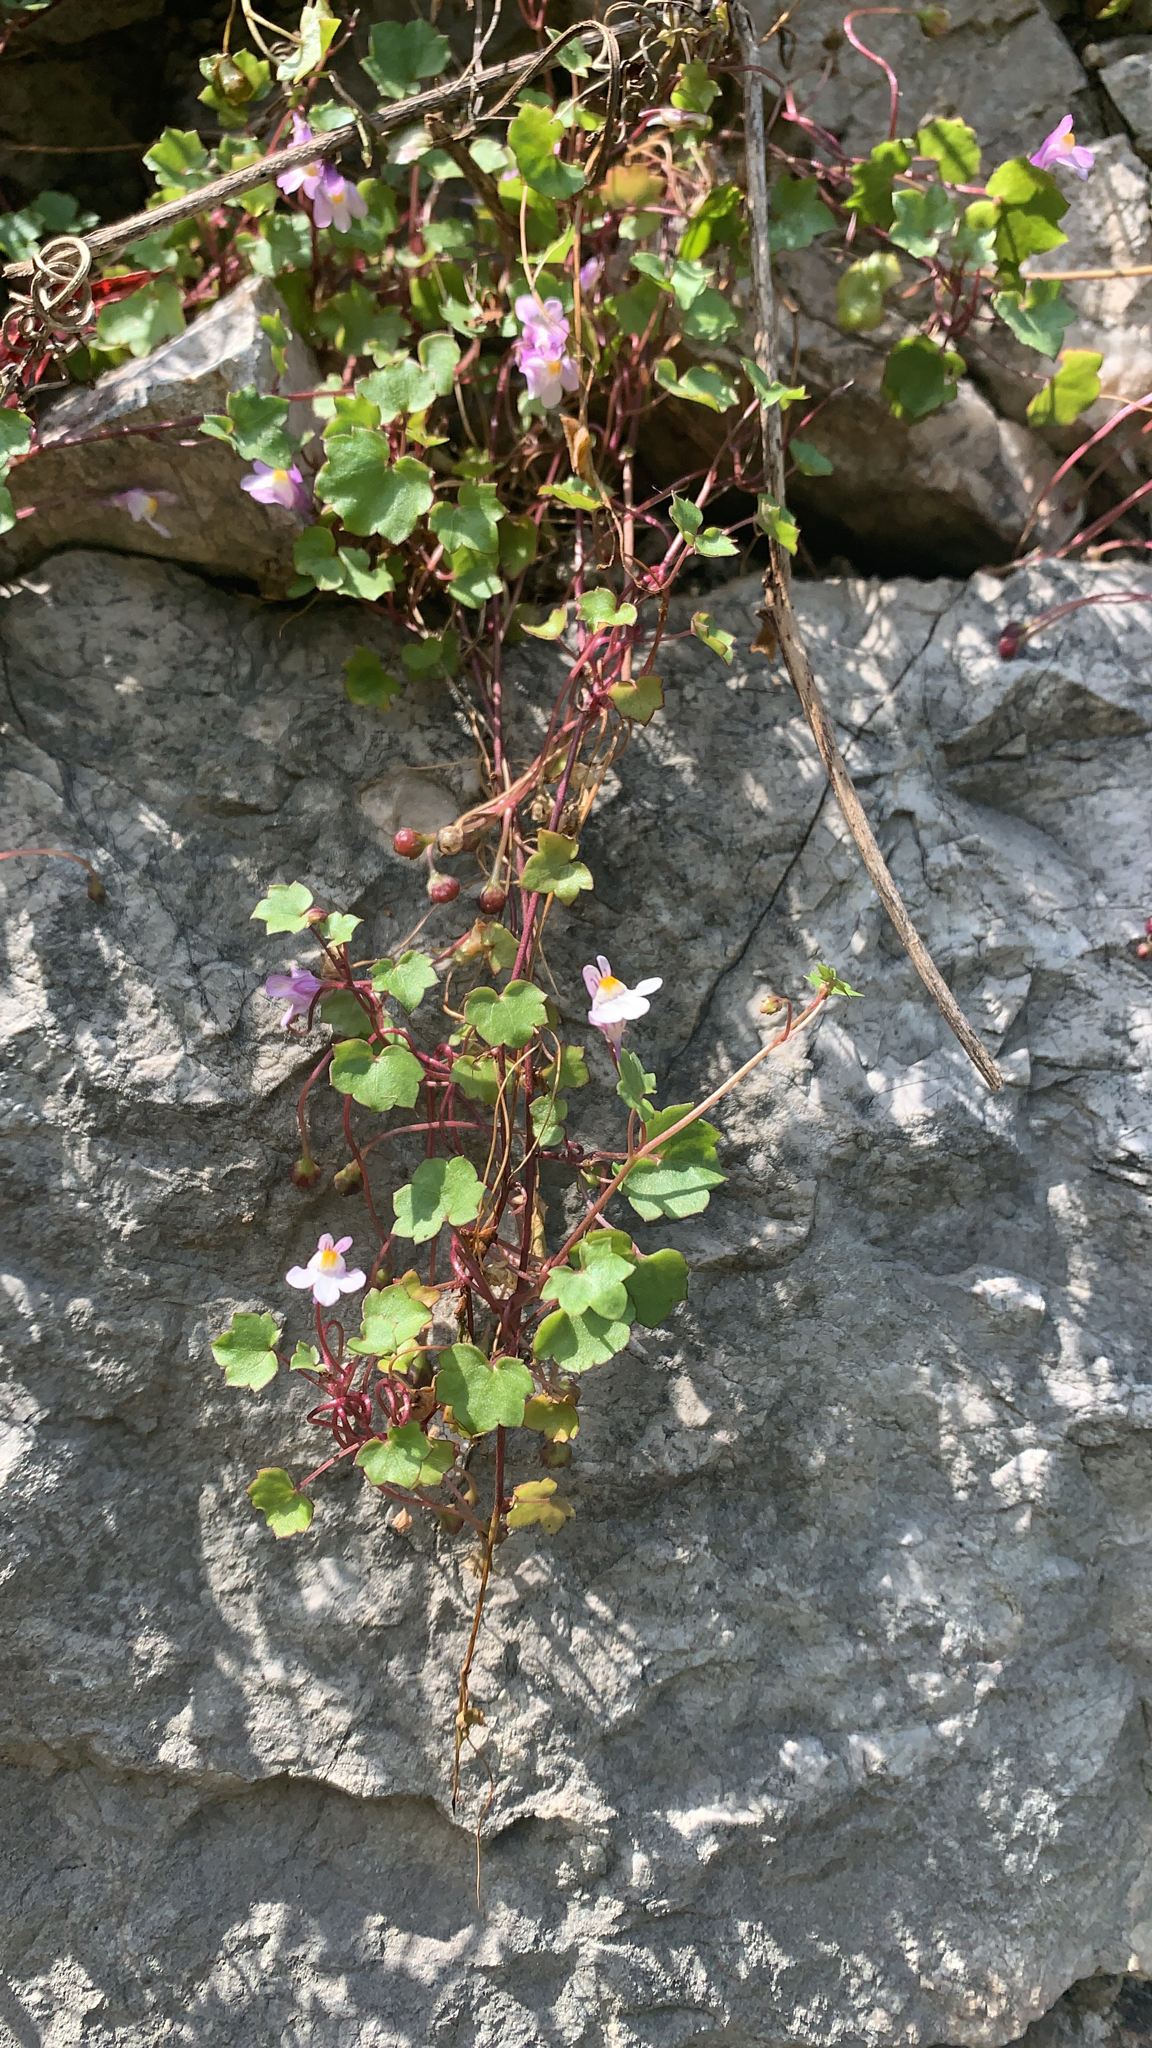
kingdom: Plantae
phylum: Tracheophyta
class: Magnoliopsida
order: Lamiales
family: Plantaginaceae
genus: Cymbalaria
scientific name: Cymbalaria muralis
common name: Ivy-leaved toadflax
